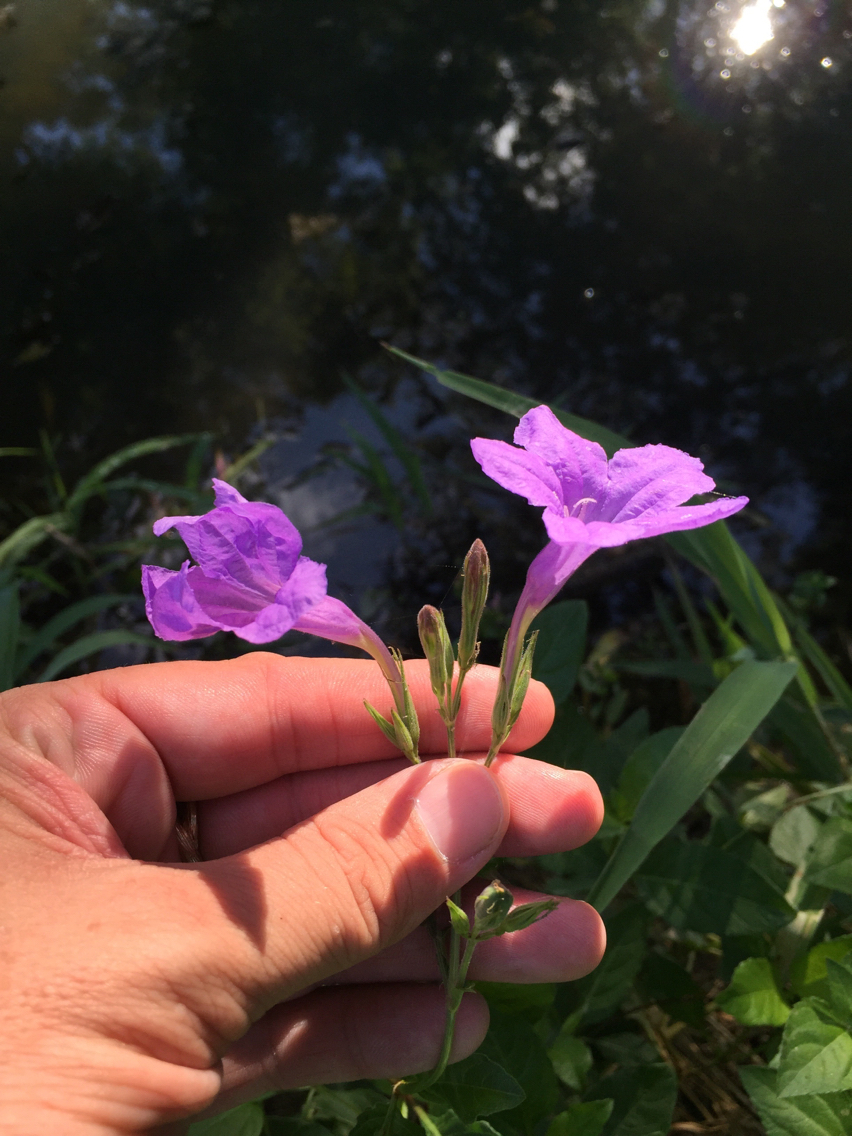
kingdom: Plantae
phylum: Tracheophyta
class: Magnoliopsida
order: Lamiales
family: Acanthaceae
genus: Ruellia
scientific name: Ruellia ciliatiflora
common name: Hairyflower wild petunia
